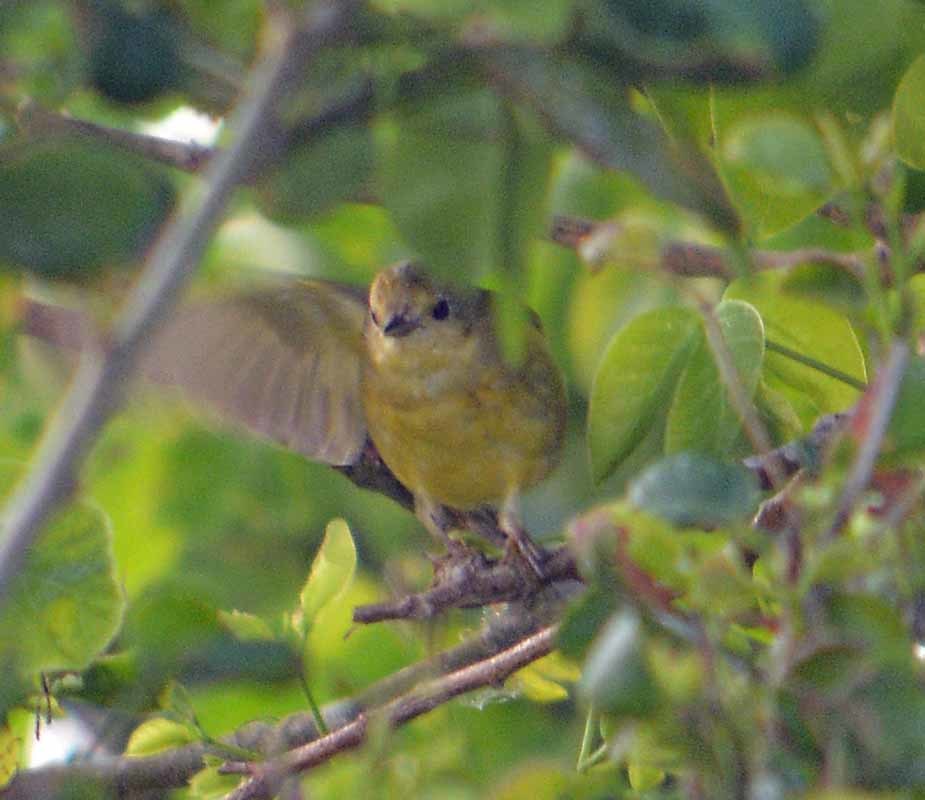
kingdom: Animalia
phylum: Chordata
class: Aves
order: Passeriformes
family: Parulidae
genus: Setophaga
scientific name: Setophaga petechia
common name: Yellow warbler
